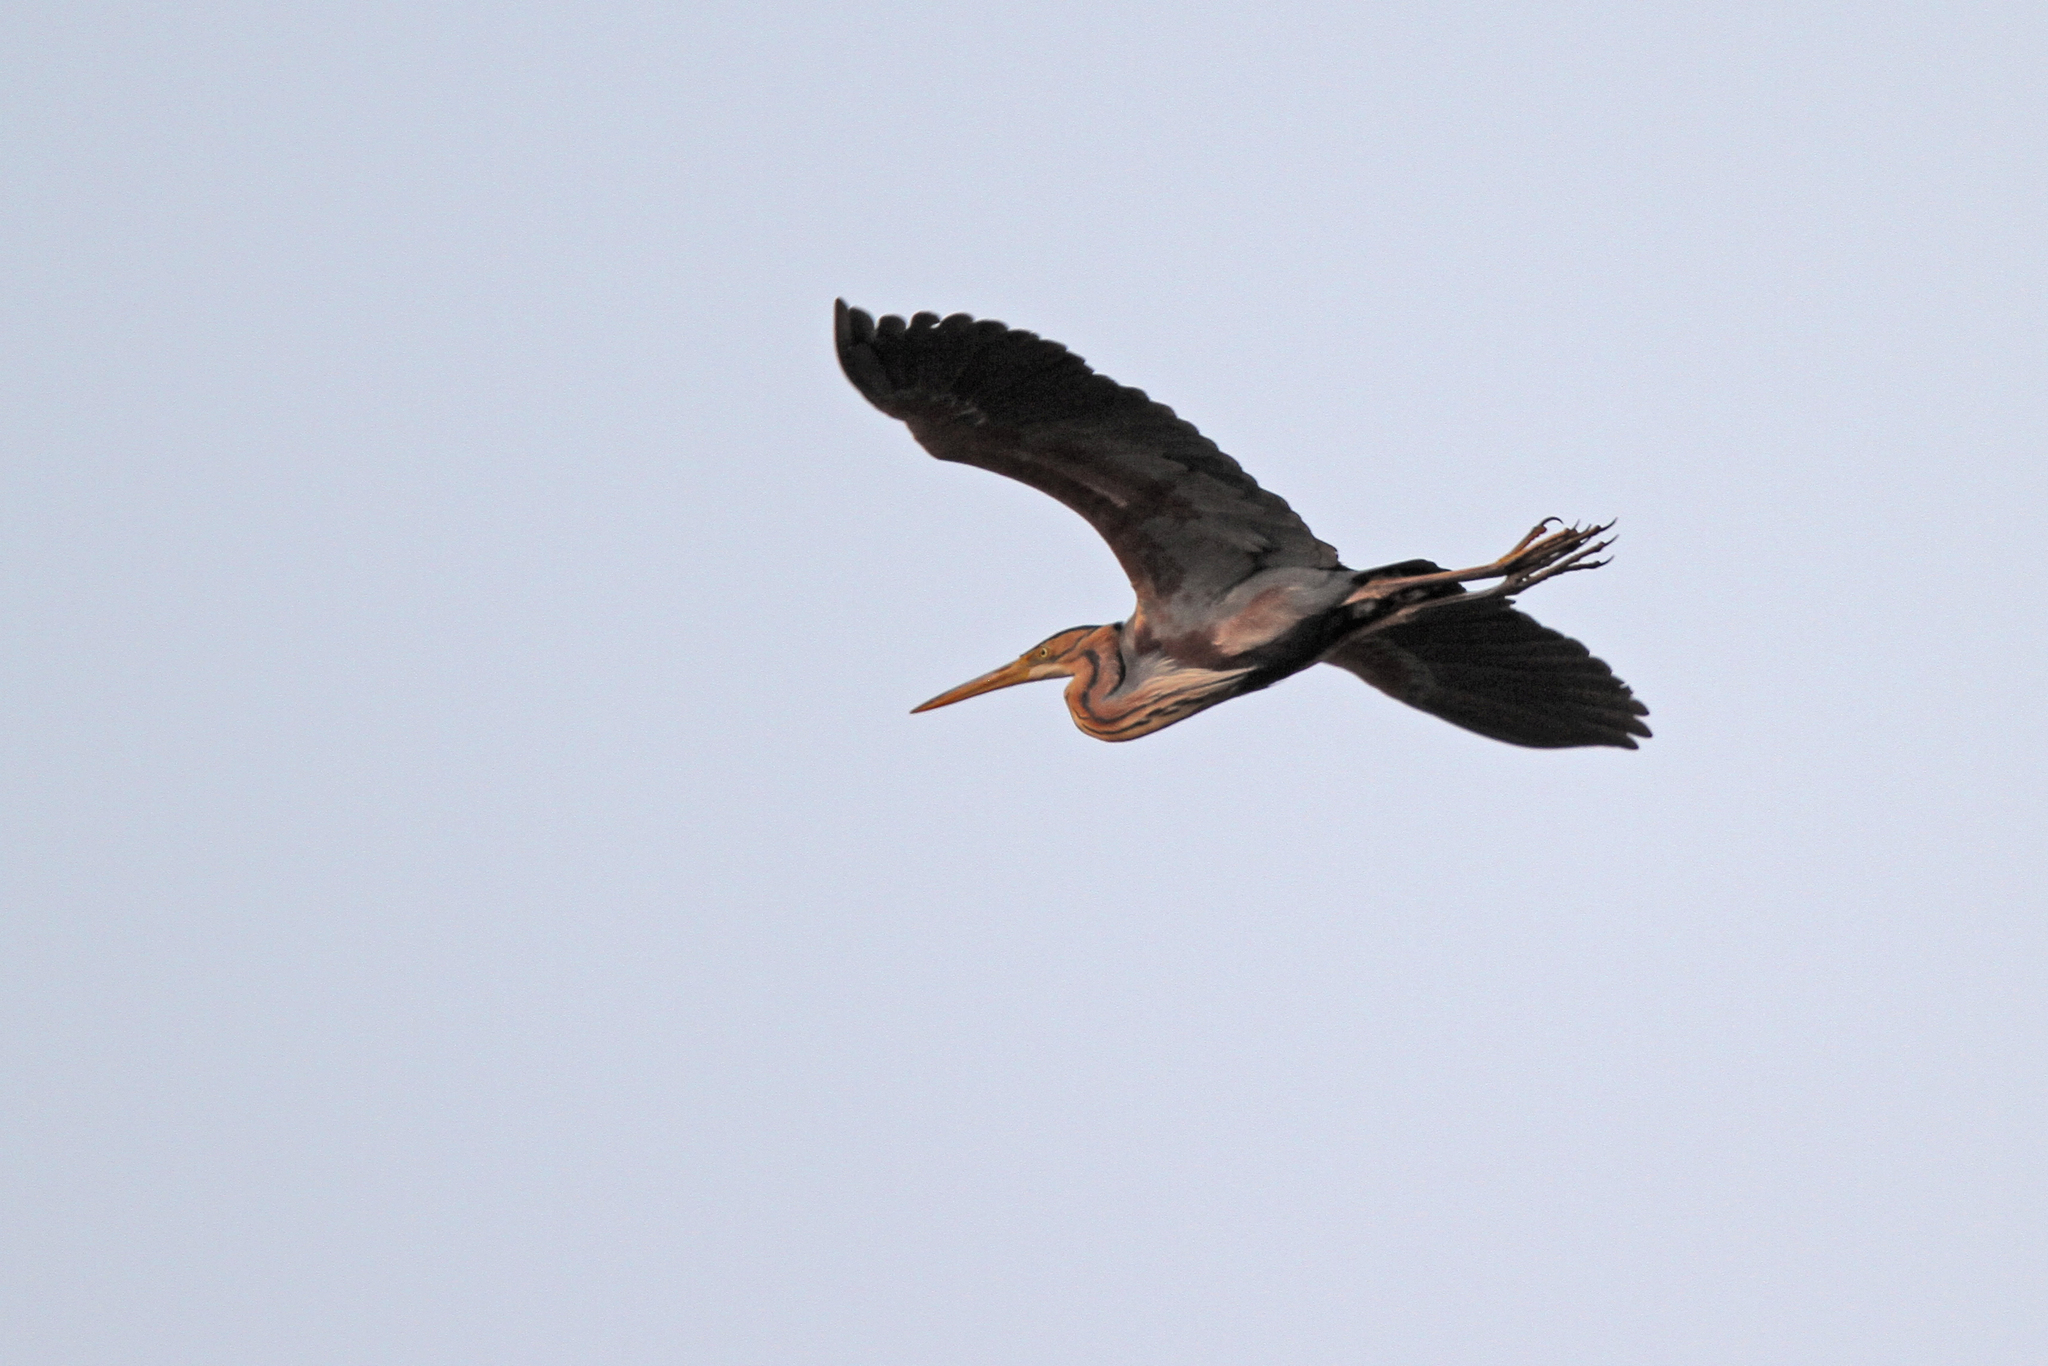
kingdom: Animalia
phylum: Chordata
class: Aves
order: Pelecaniformes
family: Ardeidae
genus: Ardea
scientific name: Ardea purpurea
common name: Purple heron
